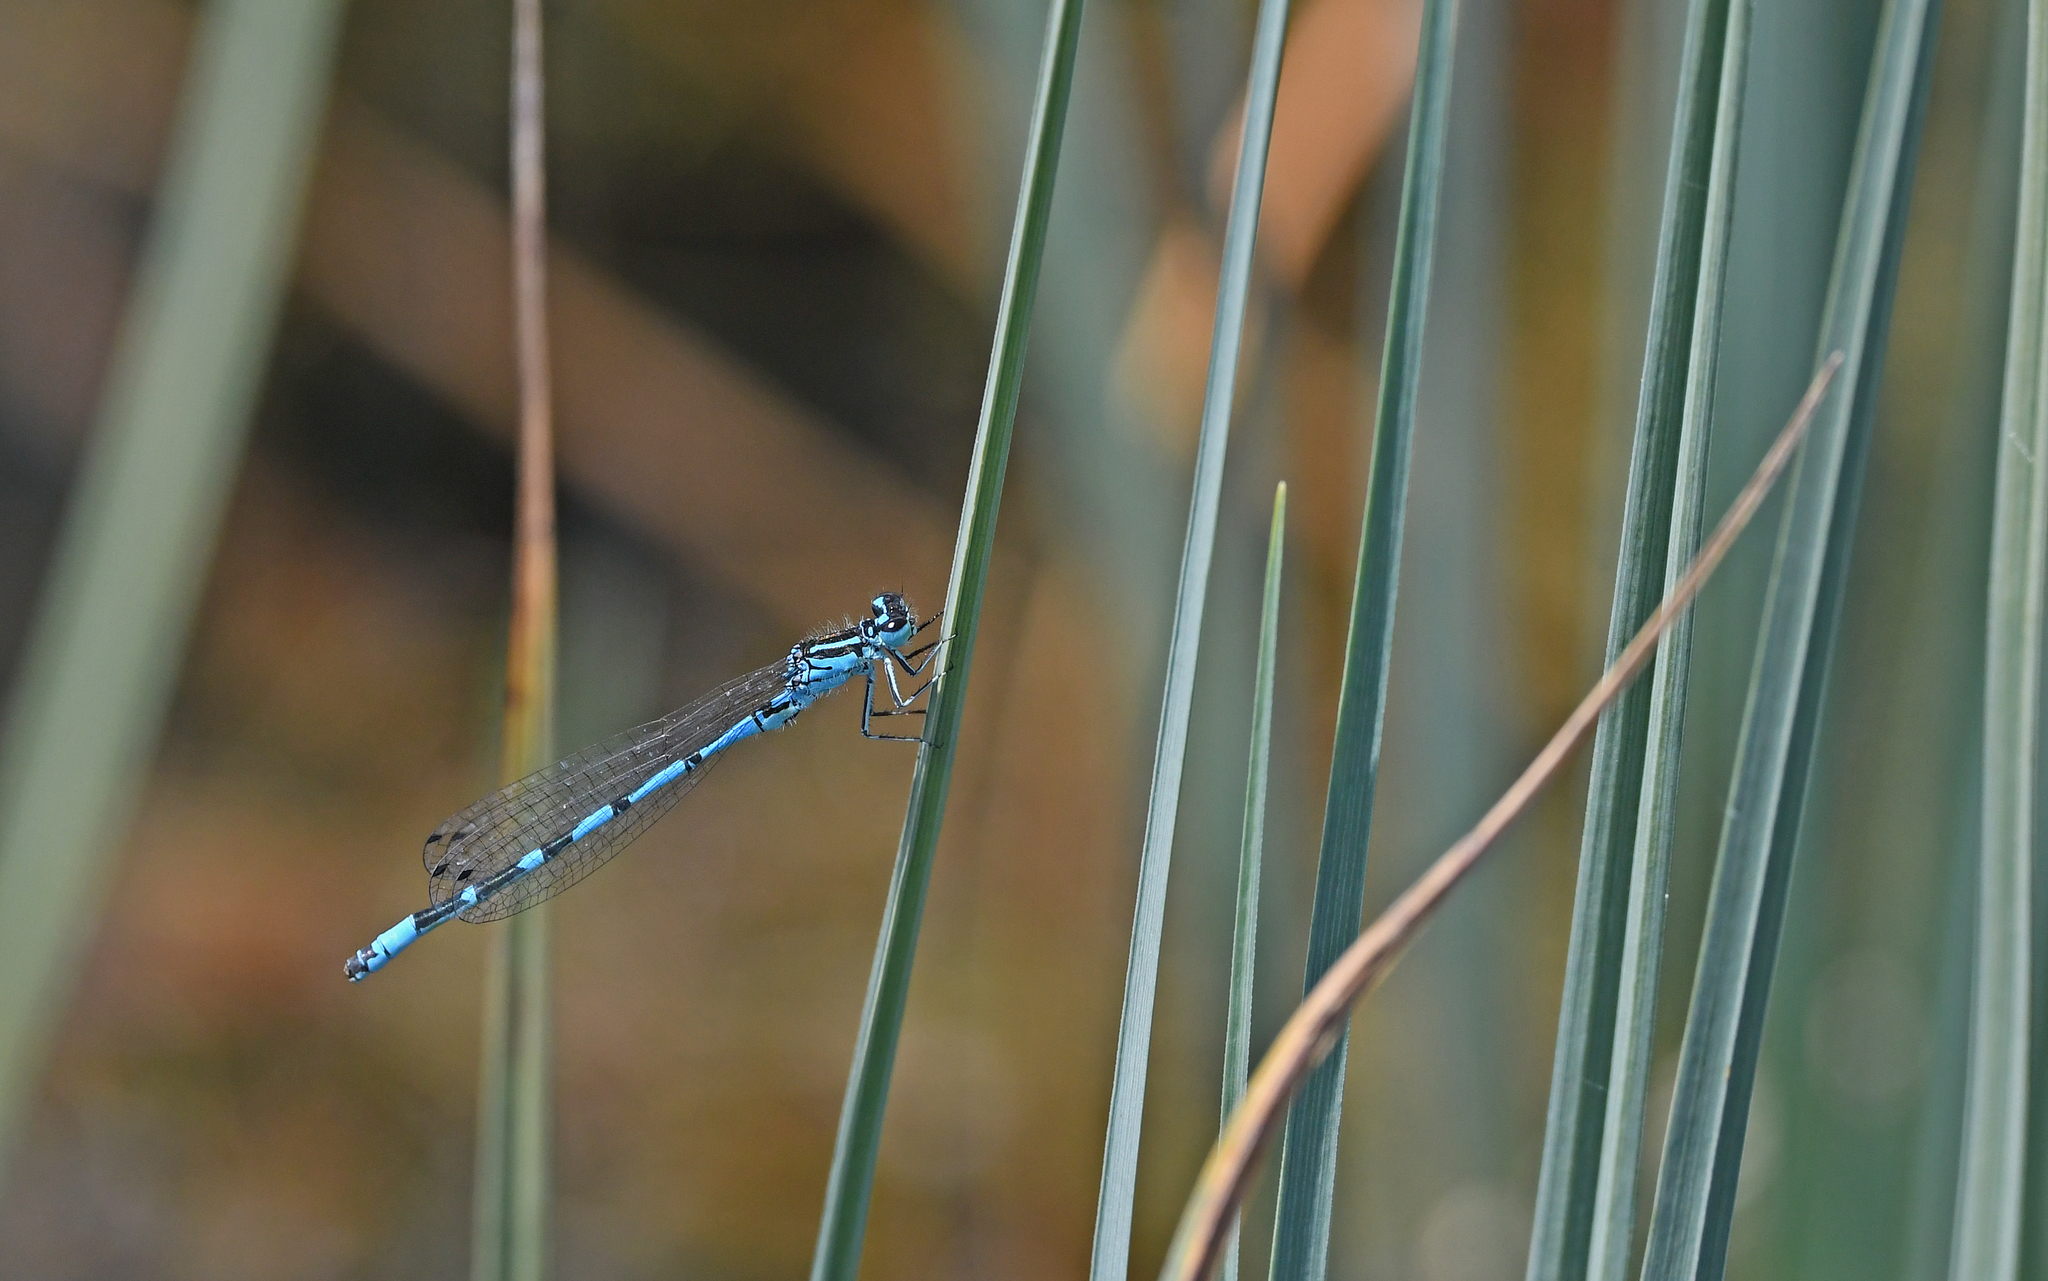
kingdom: Animalia
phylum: Arthropoda
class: Insecta
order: Odonata
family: Coenagrionidae
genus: Coenagrion
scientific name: Coenagrion ornatum
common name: Ornate bluet
